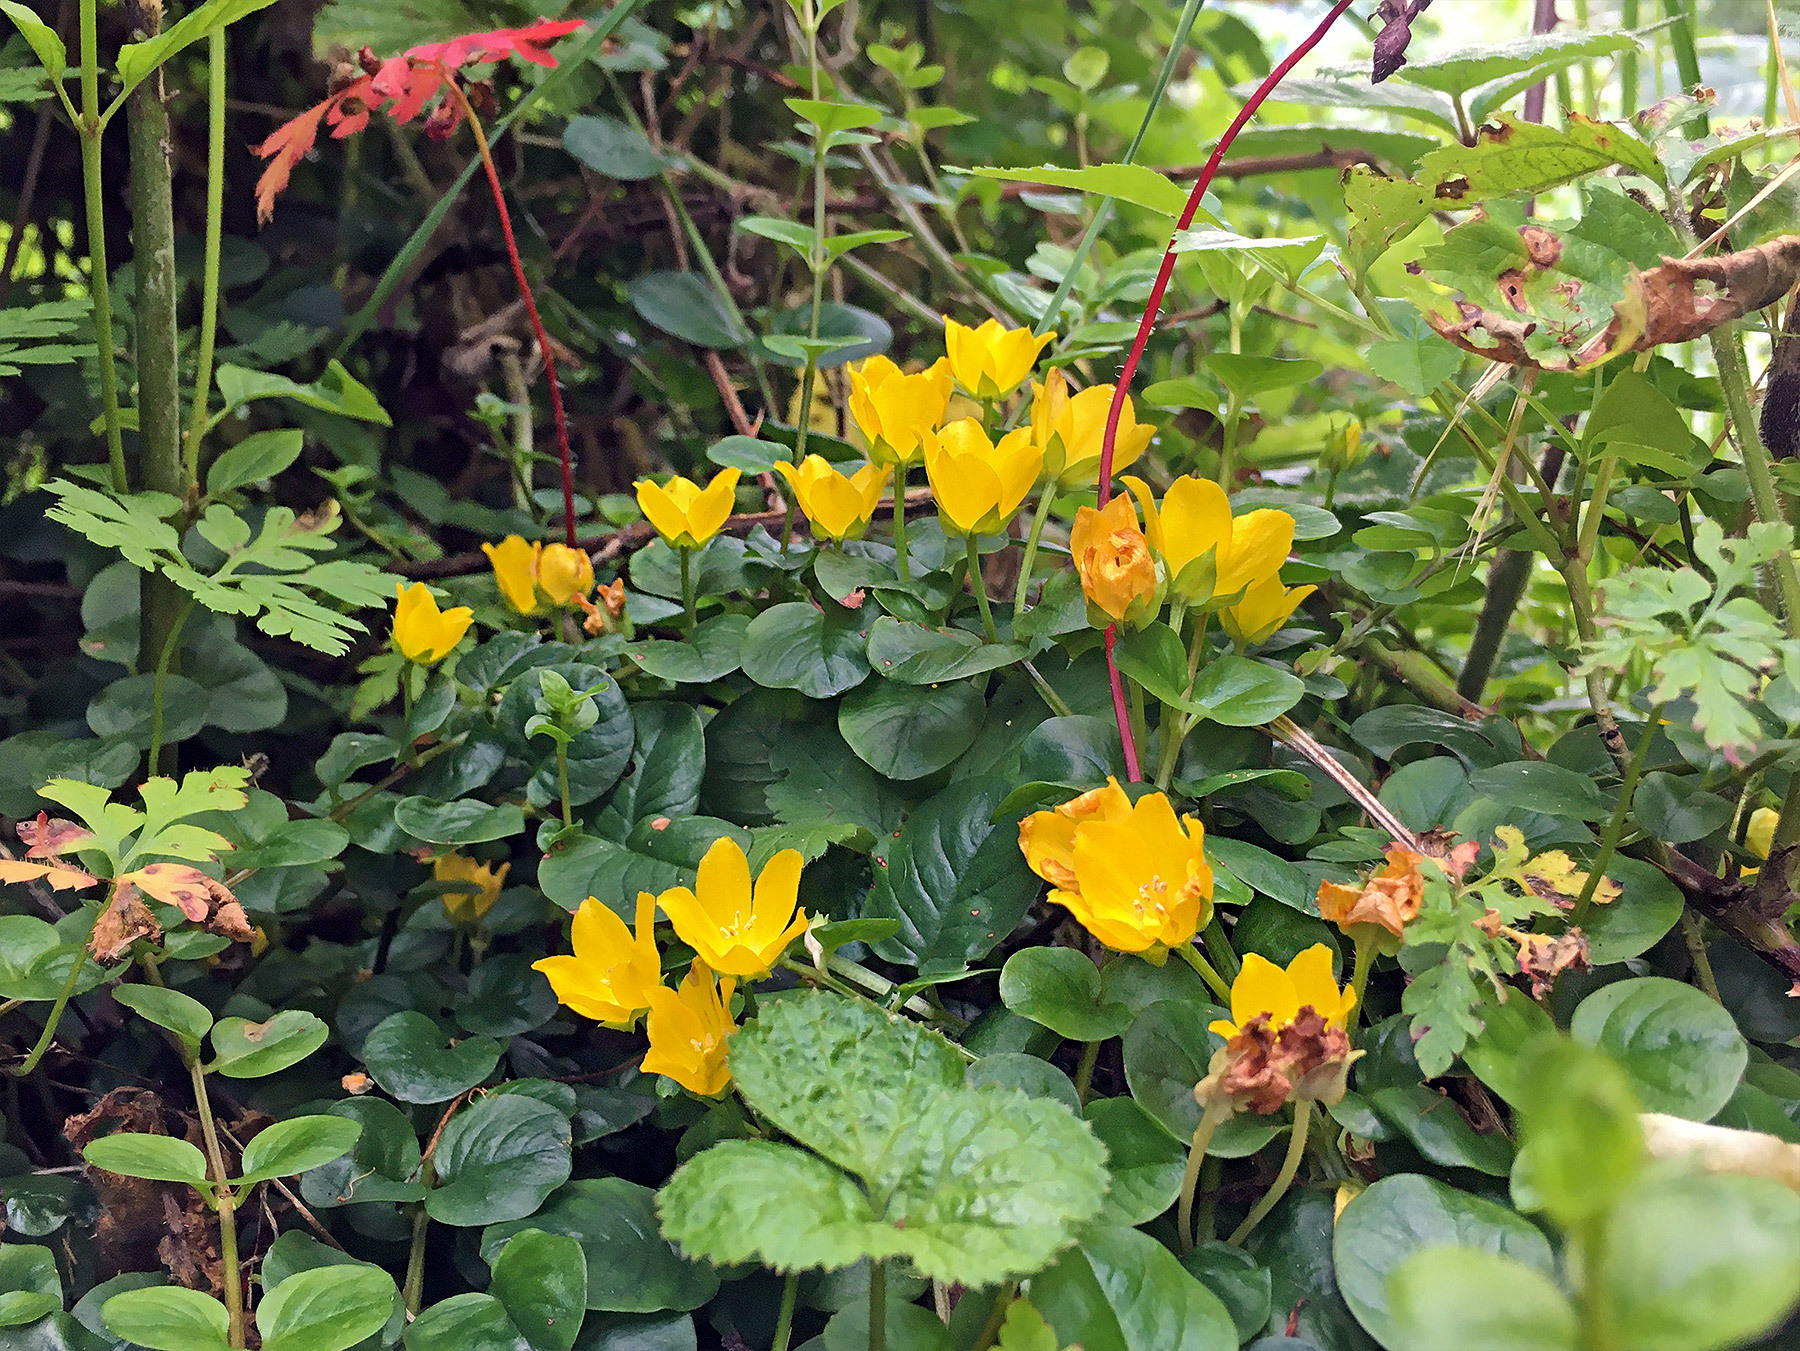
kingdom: Plantae
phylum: Tracheophyta
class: Magnoliopsida
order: Ericales
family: Primulaceae
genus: Lysimachia
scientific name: Lysimachia nummularia
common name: Moneywort
